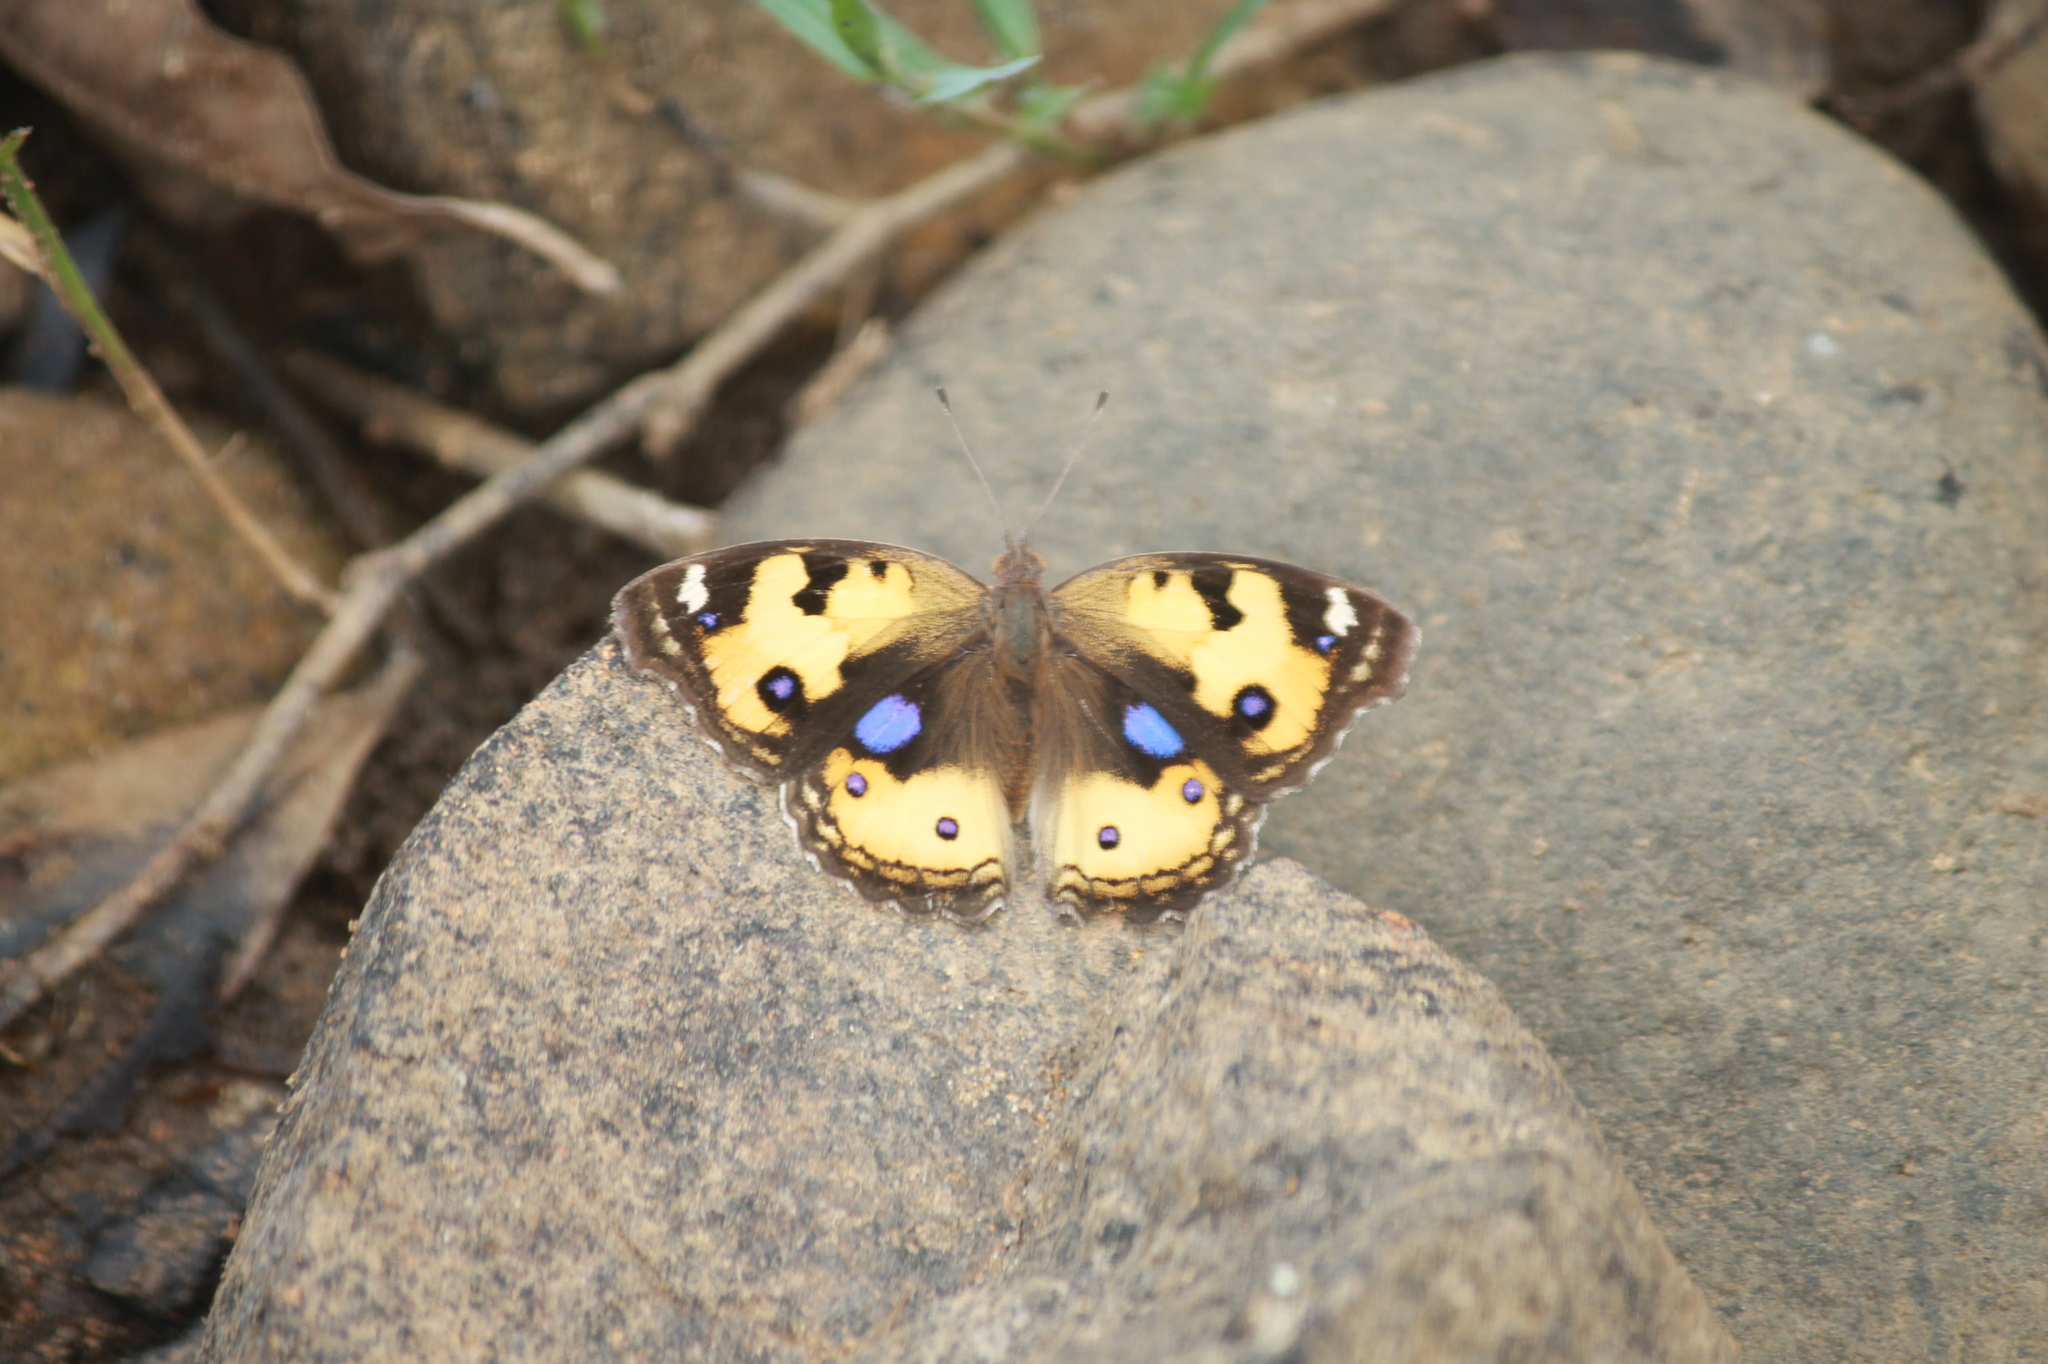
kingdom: Animalia
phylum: Arthropoda
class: Insecta
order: Lepidoptera
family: Nymphalidae
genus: Junonia
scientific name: Junonia hierta
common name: Yellow pansy
